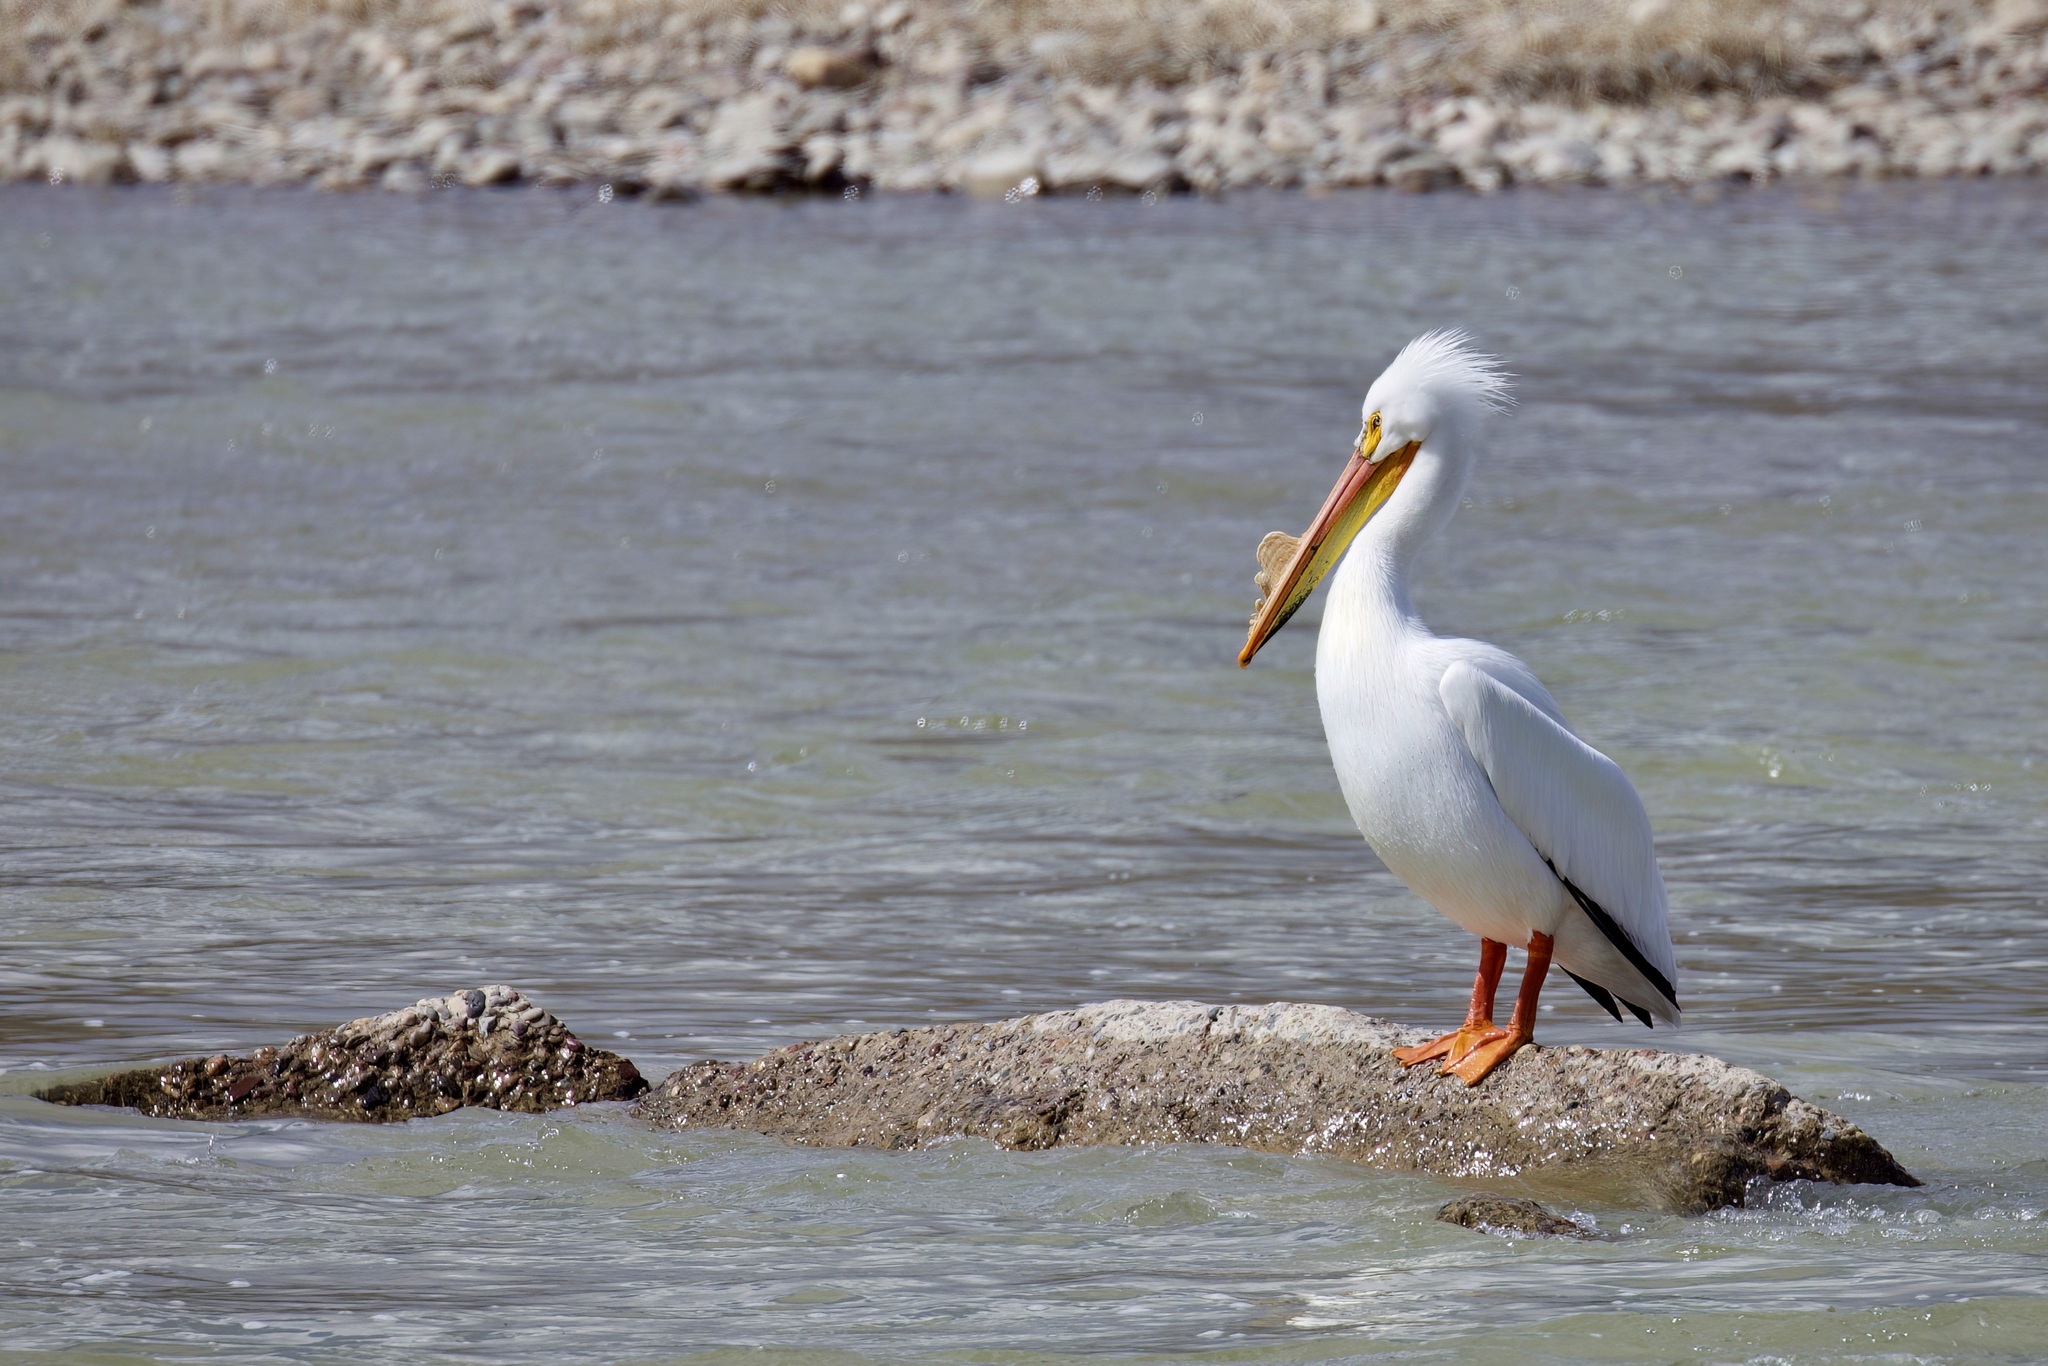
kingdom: Animalia
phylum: Chordata
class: Aves
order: Pelecaniformes
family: Pelecanidae
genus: Pelecanus
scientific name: Pelecanus erythrorhynchos
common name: American white pelican
